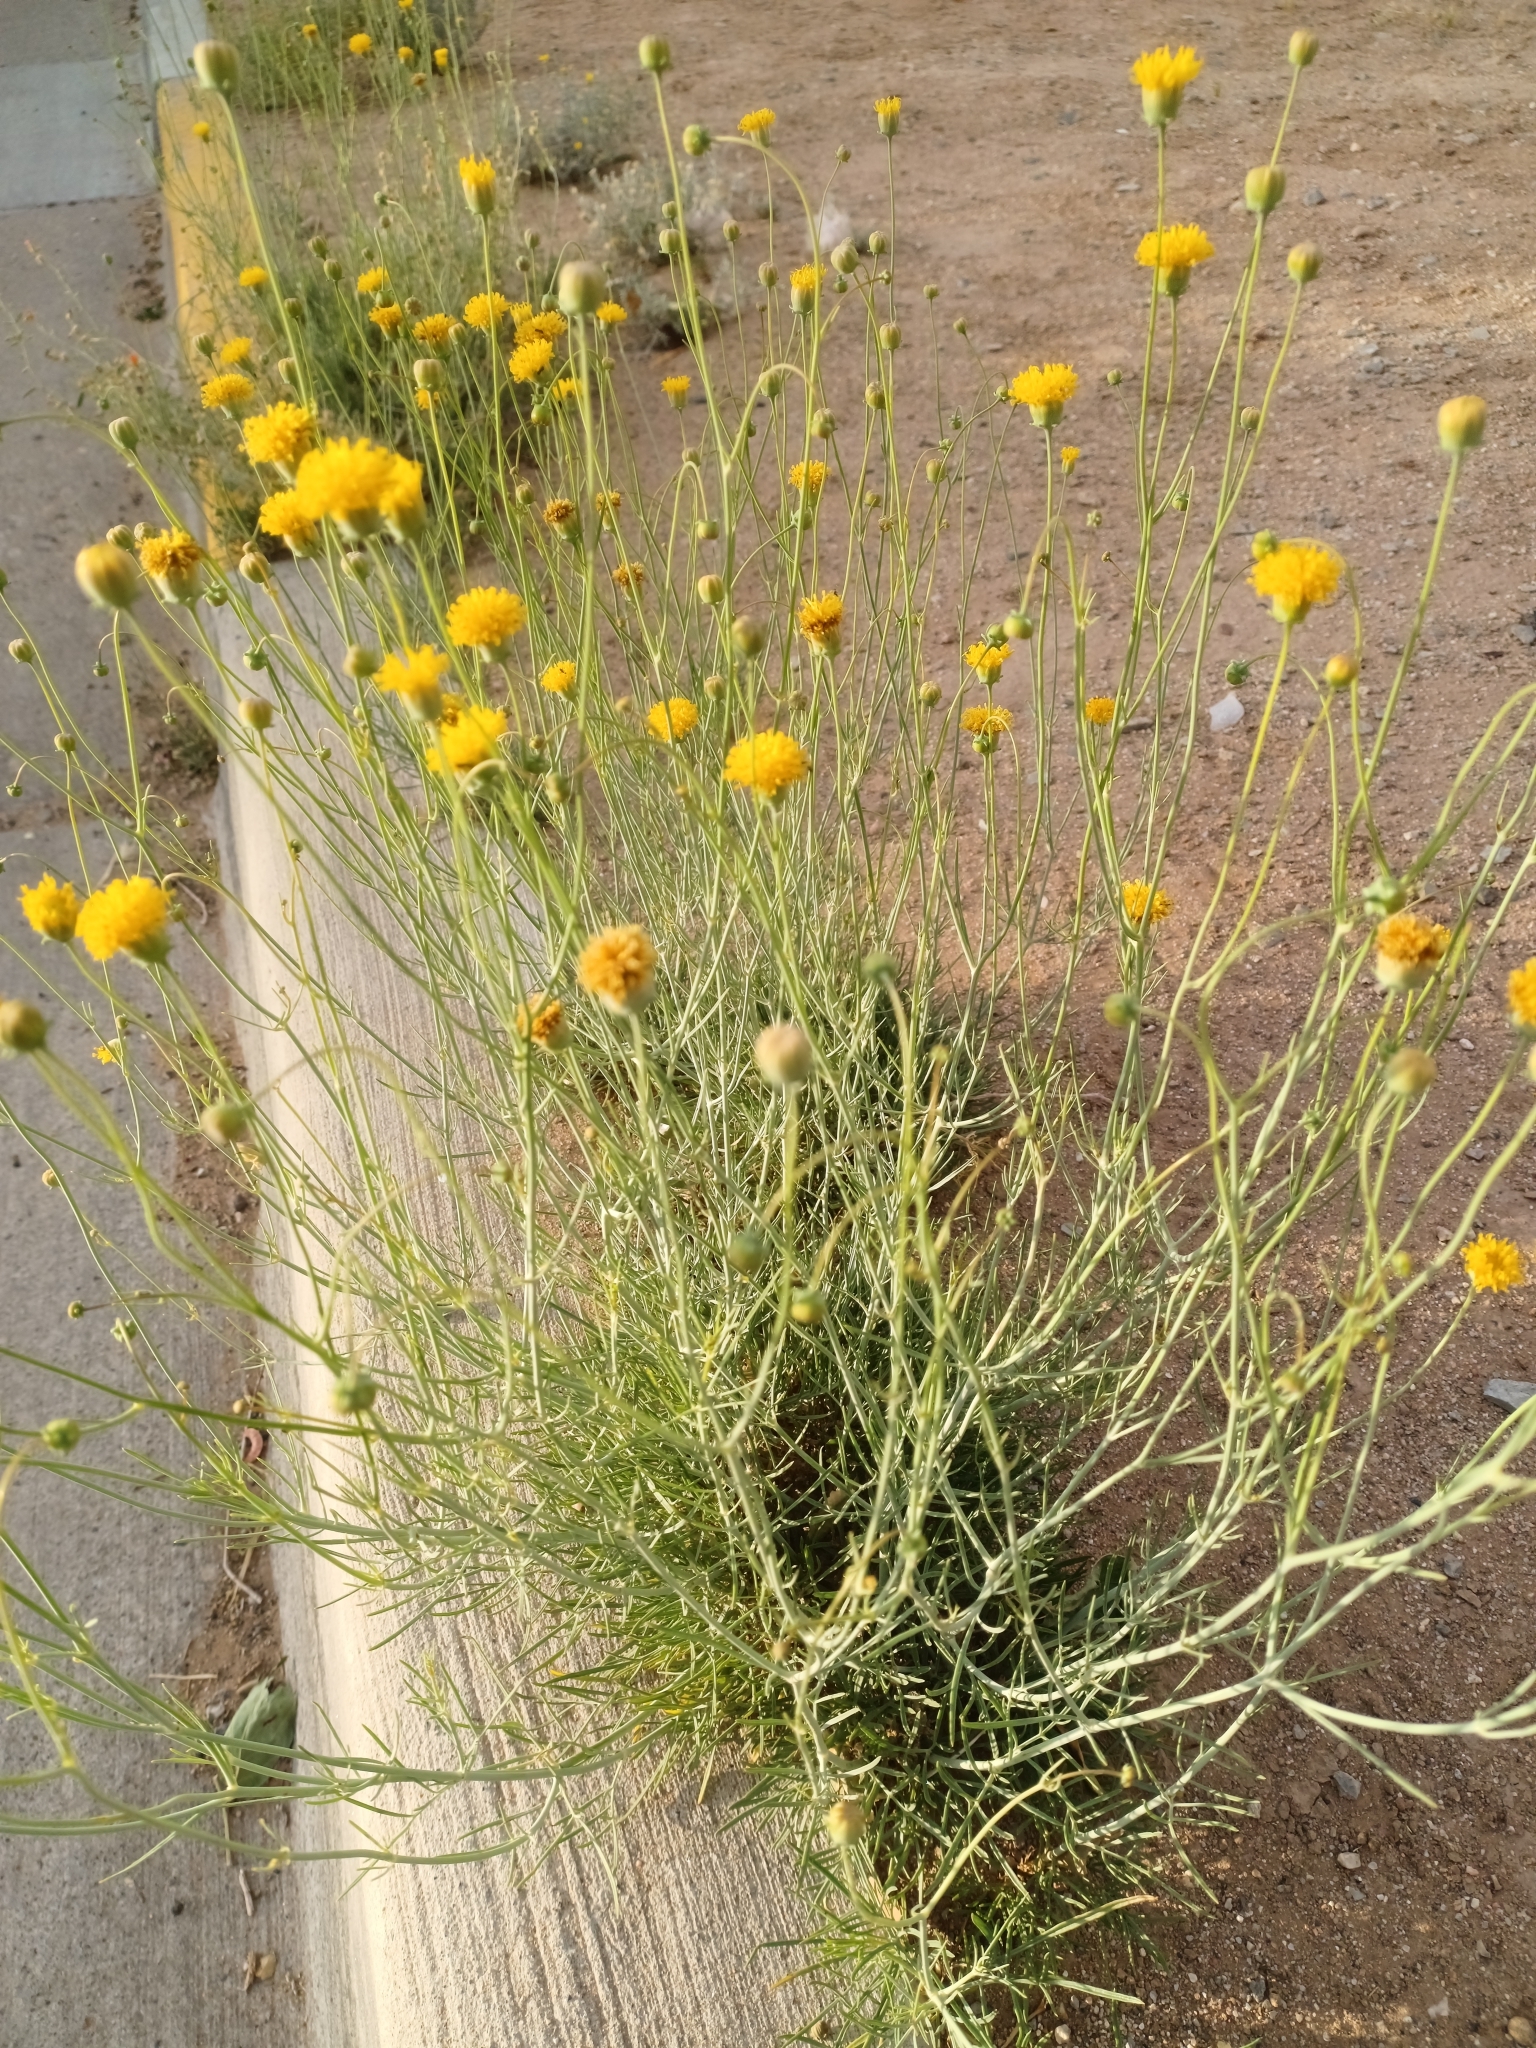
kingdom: Plantae
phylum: Tracheophyta
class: Magnoliopsida
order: Asterales
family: Asteraceae
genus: Thelesperma
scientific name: Thelesperma megapotamicum
